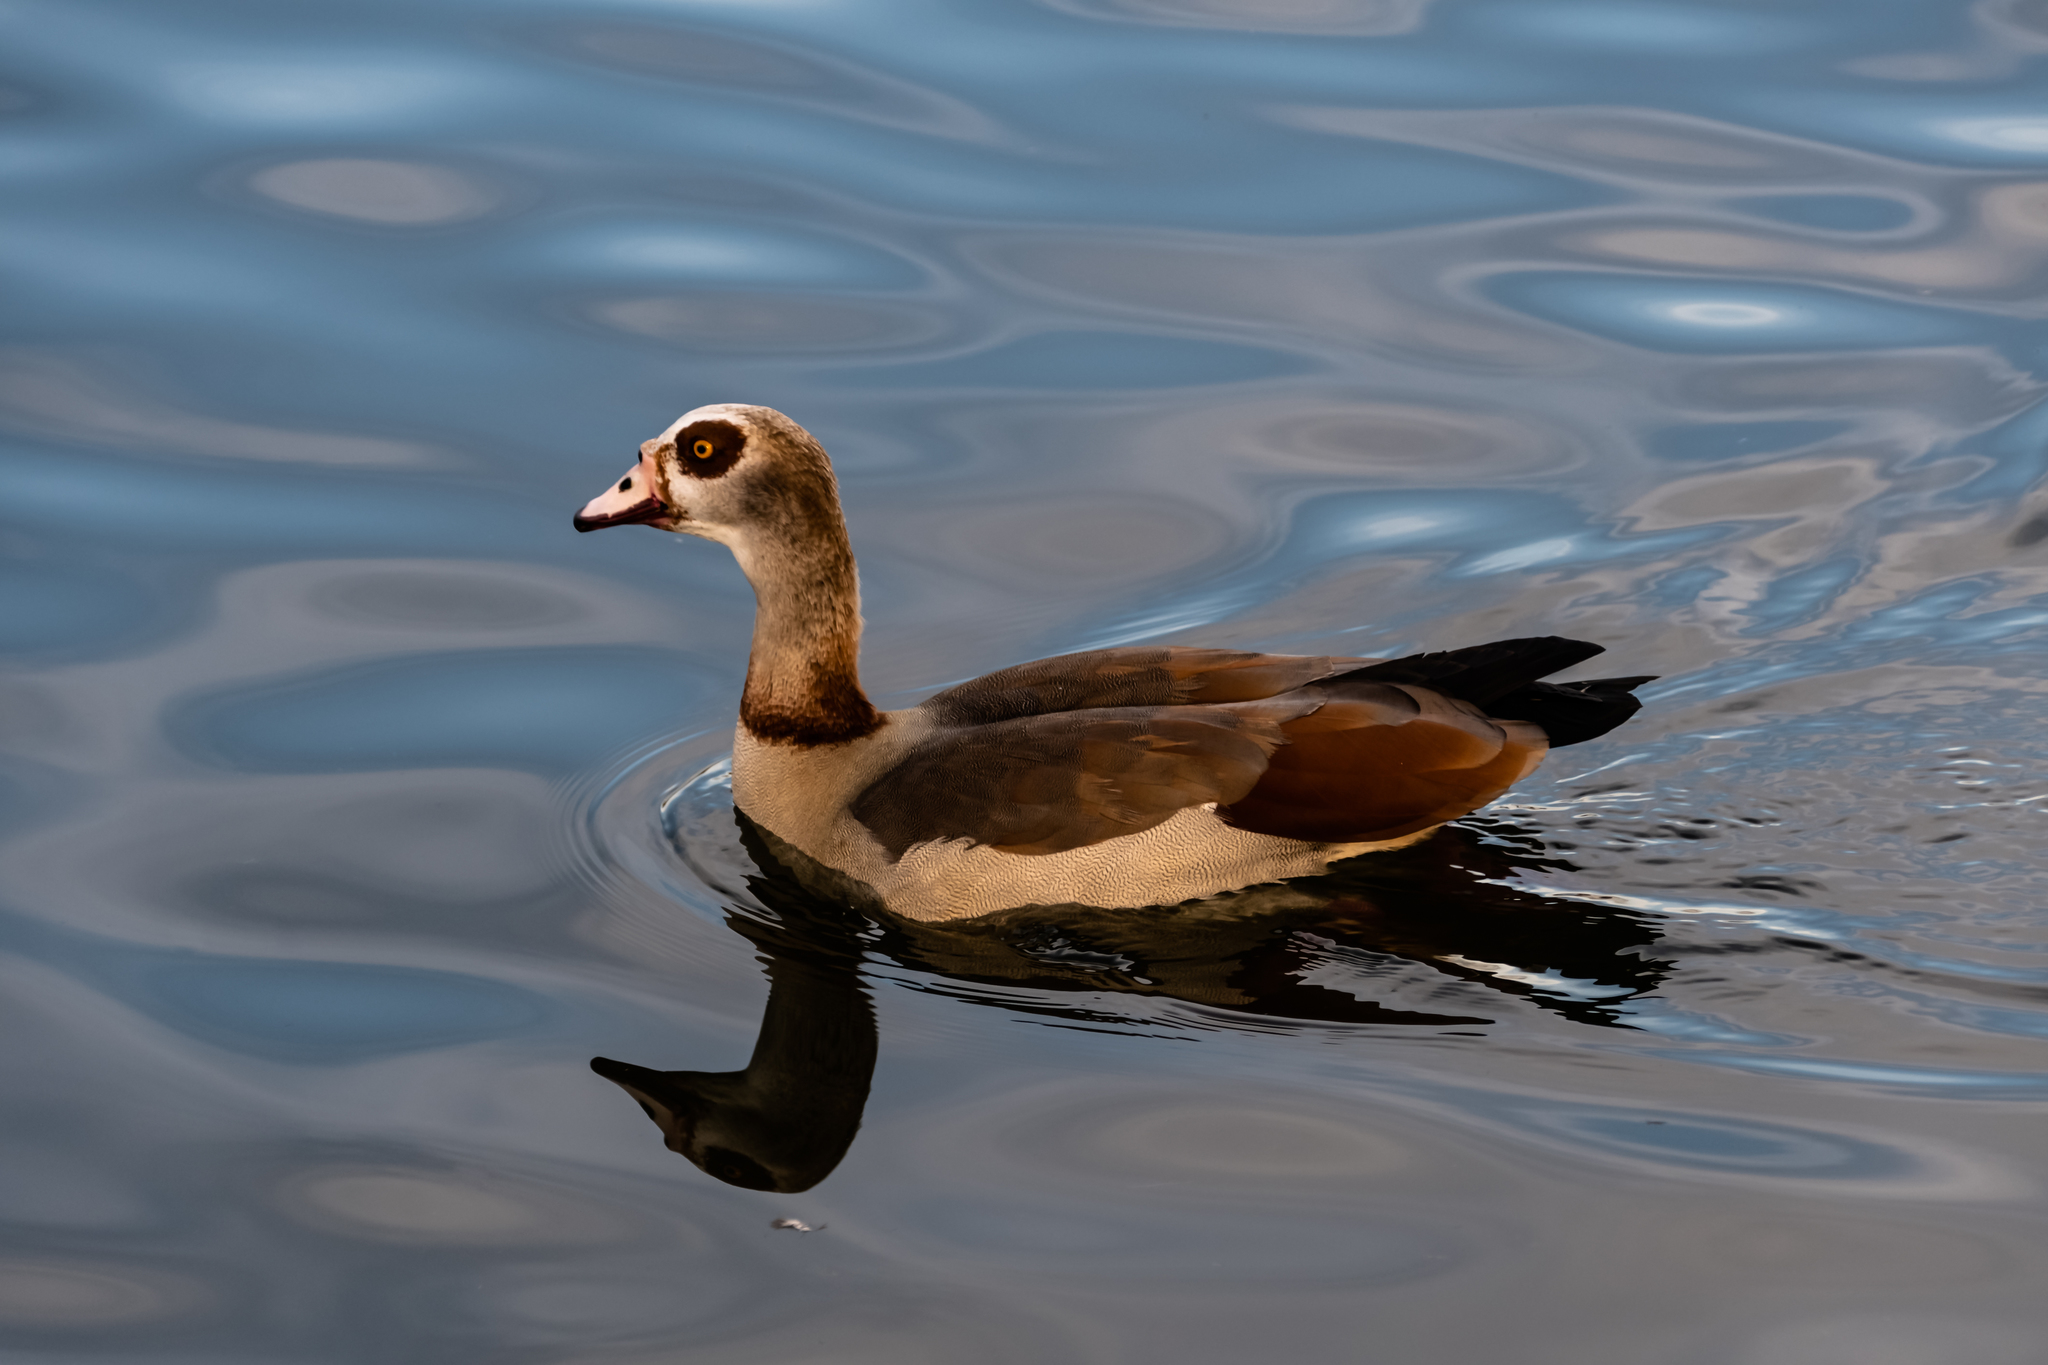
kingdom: Animalia
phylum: Chordata
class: Aves
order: Anseriformes
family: Anatidae
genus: Alopochen
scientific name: Alopochen aegyptiaca
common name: Egyptian goose
